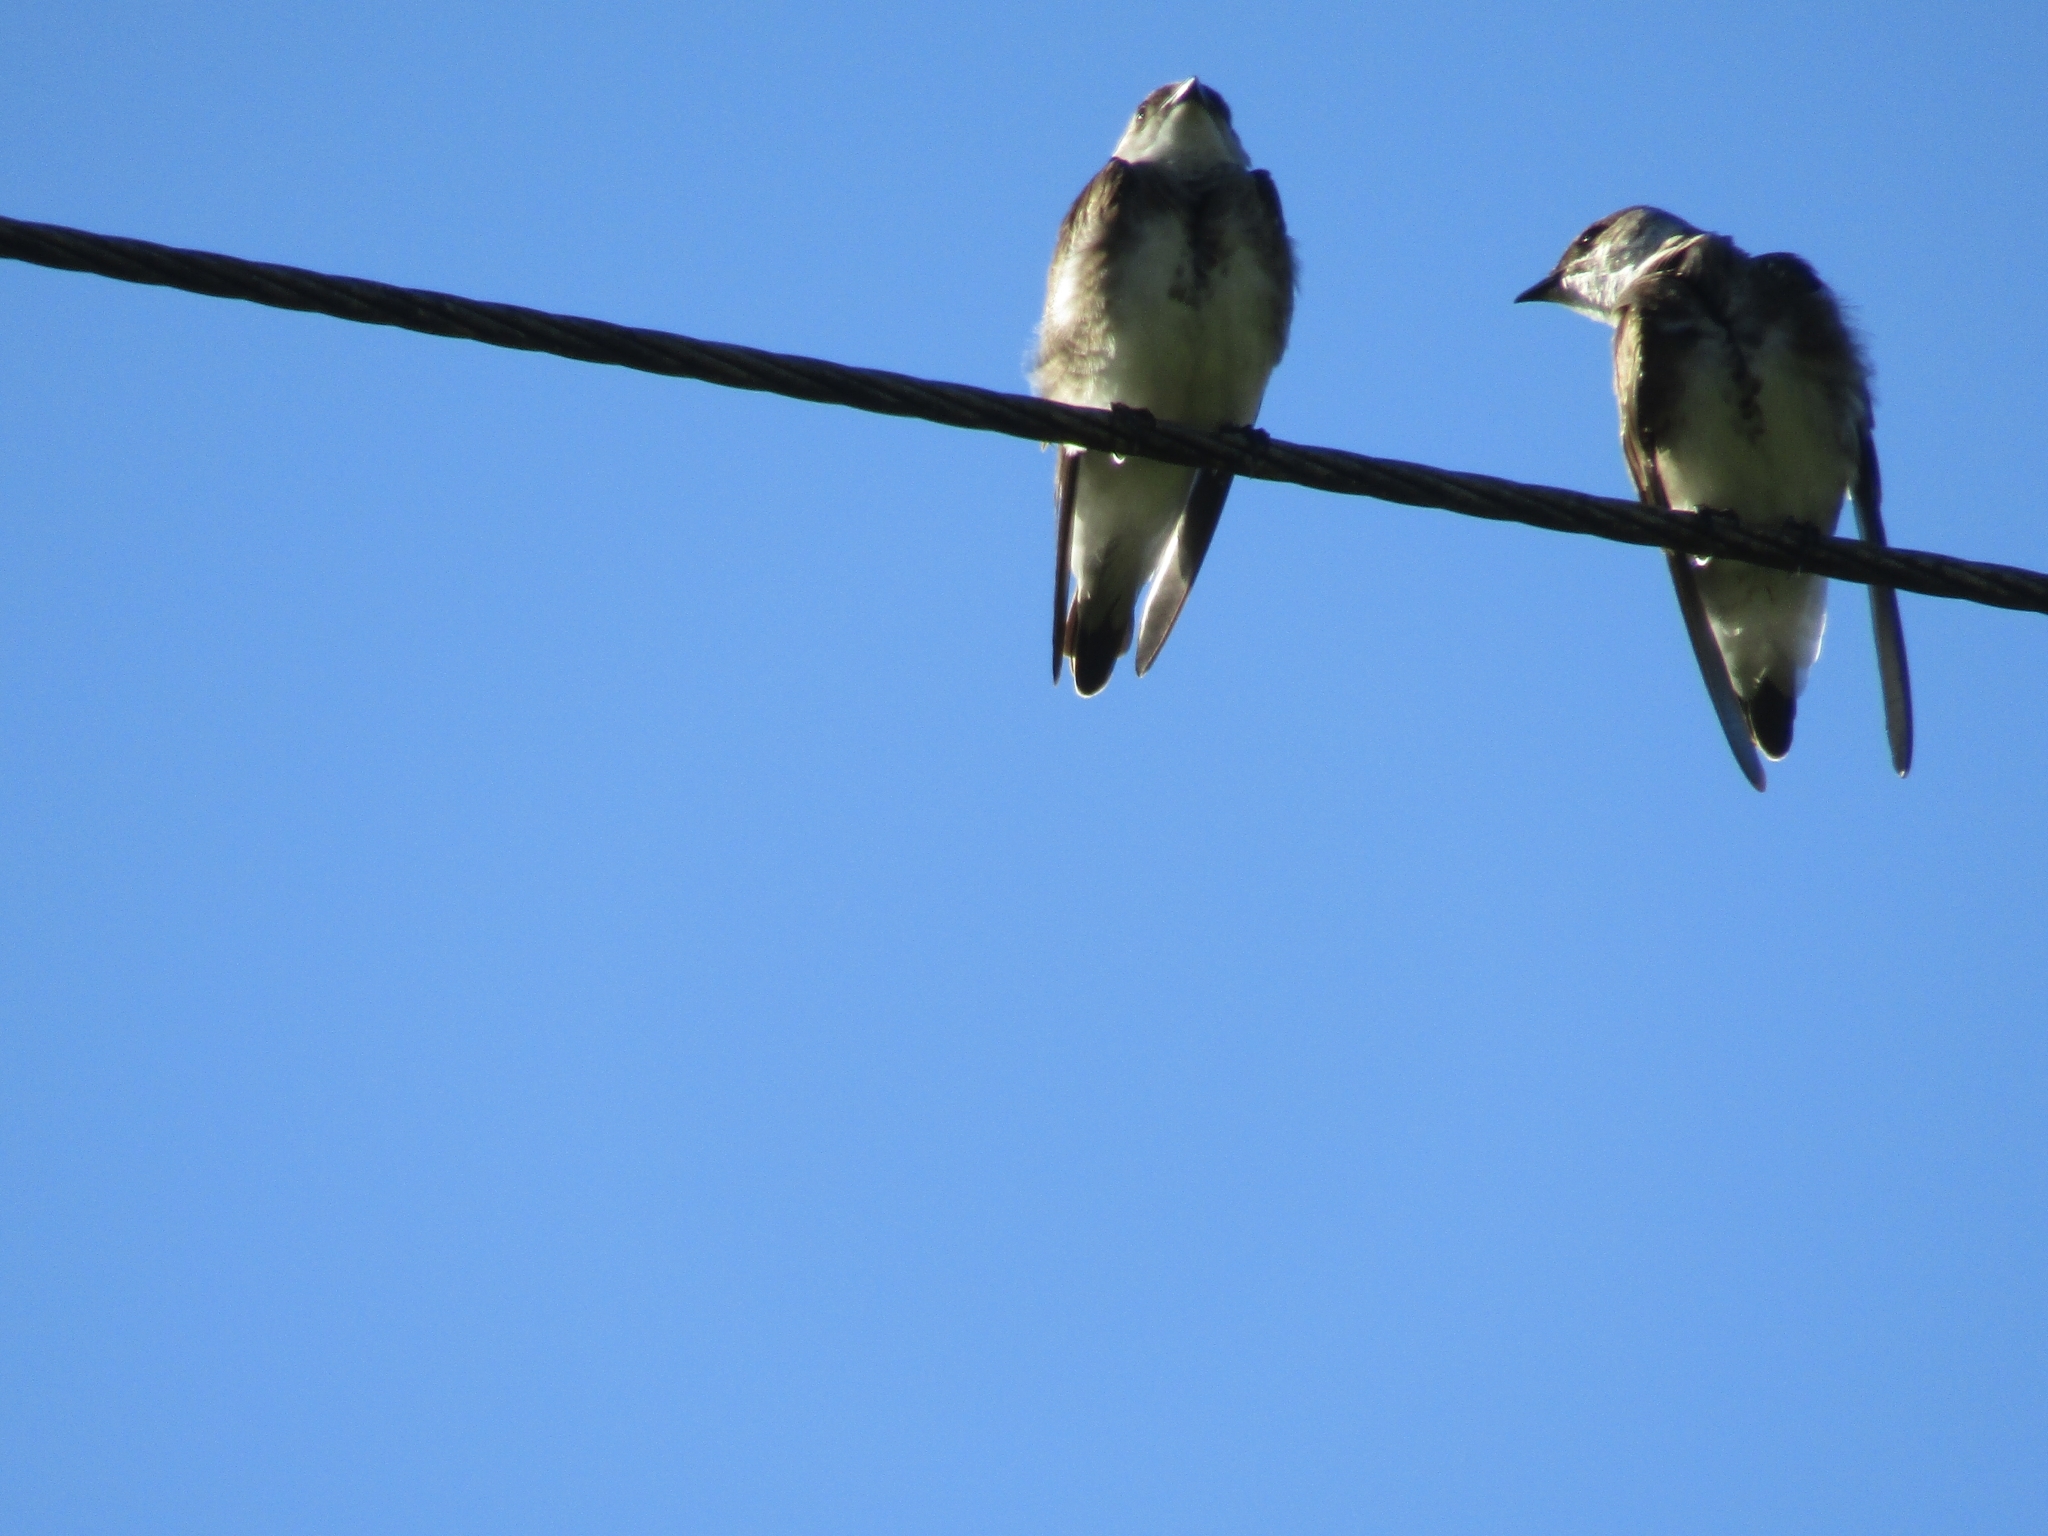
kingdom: Animalia
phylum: Chordata
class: Aves
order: Passeriformes
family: Hirundinidae
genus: Progne
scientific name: Progne tapera
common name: Brown-chested martin
